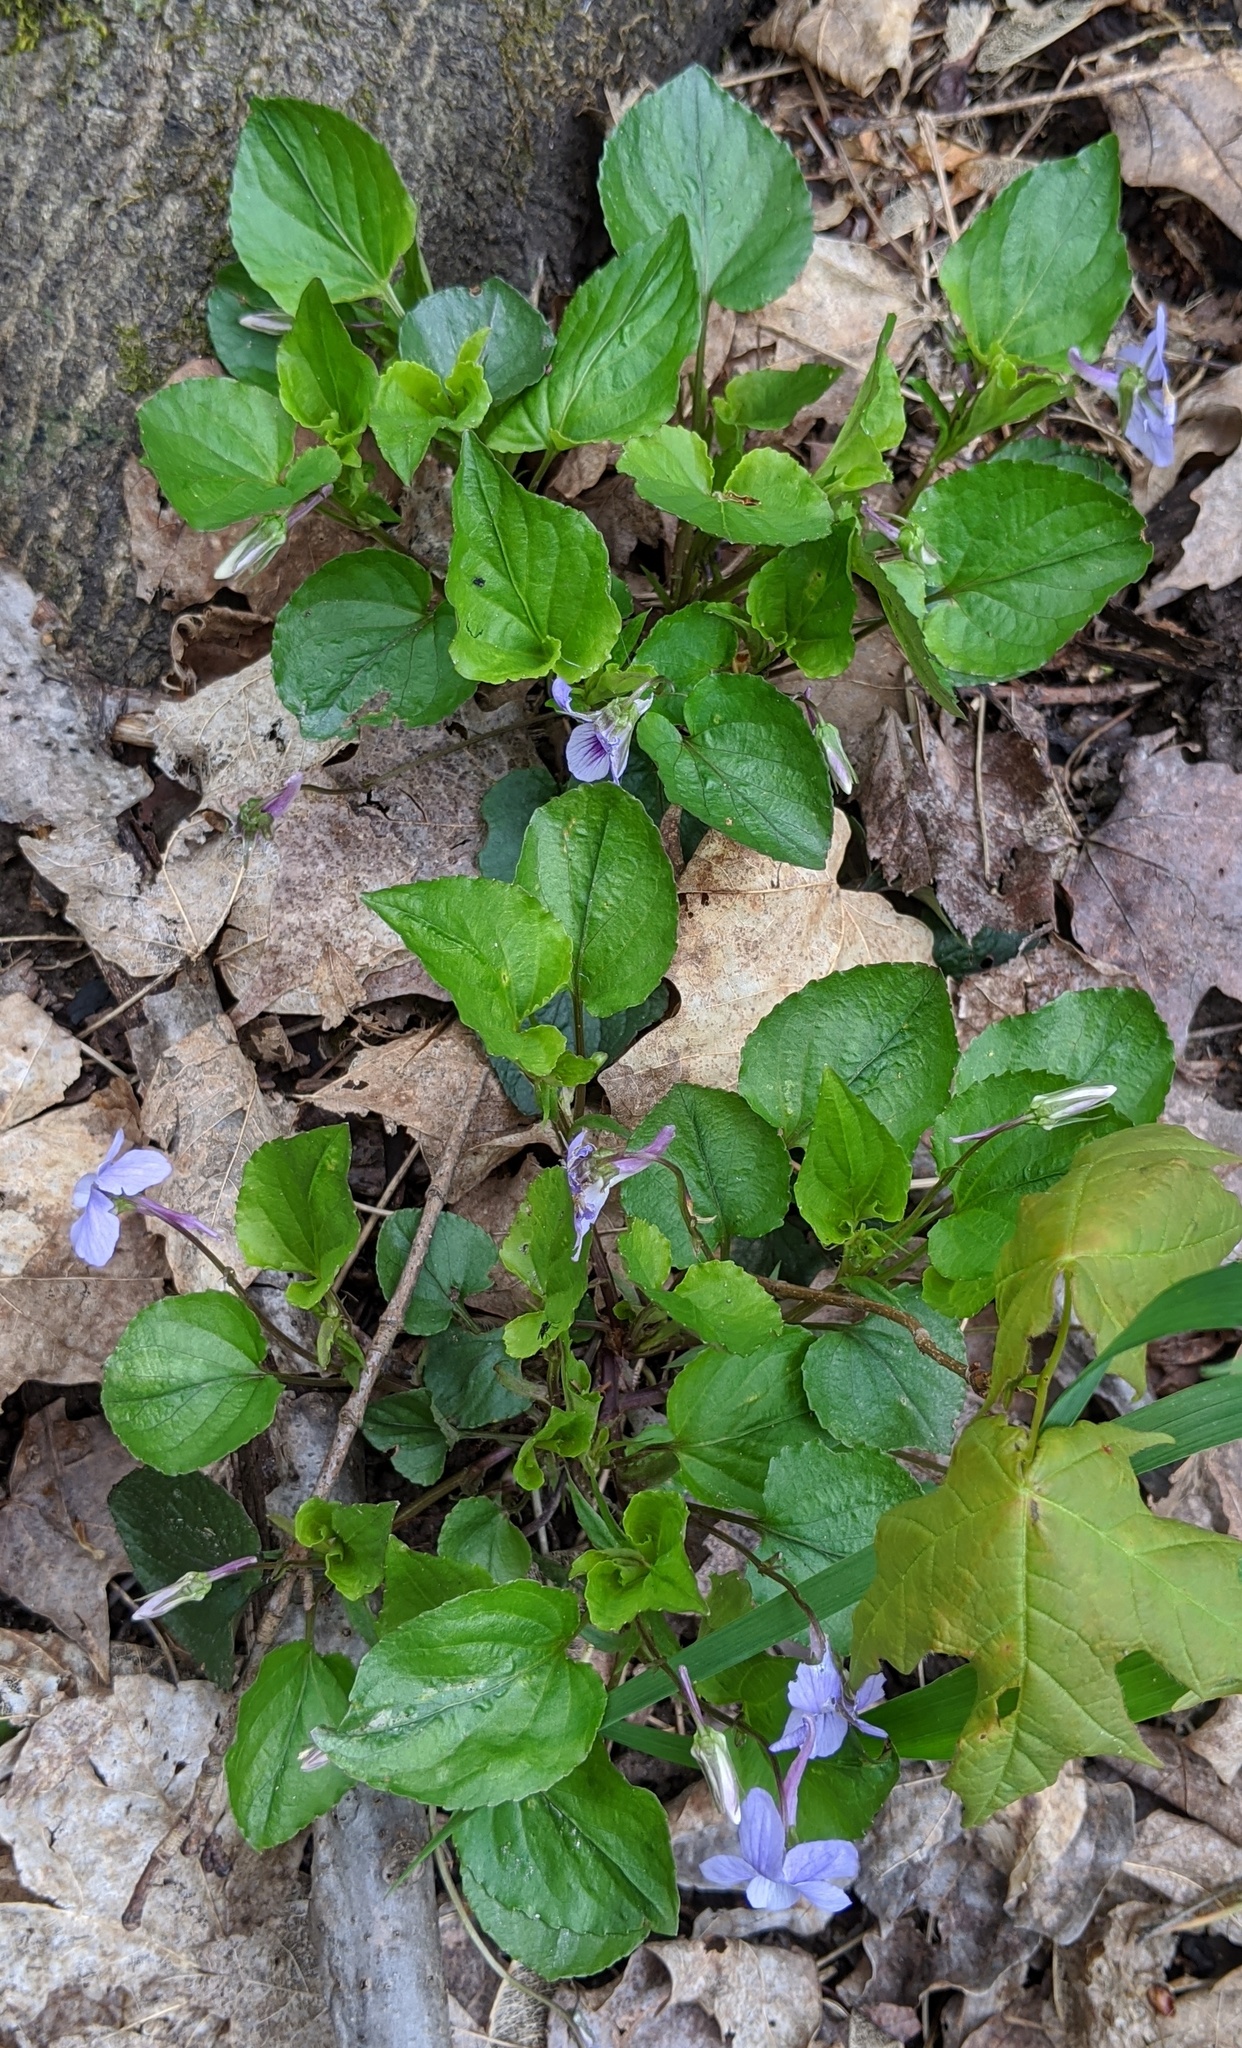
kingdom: Plantae
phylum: Tracheophyta
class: Magnoliopsida
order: Malpighiales
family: Violaceae
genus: Viola
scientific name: Viola rostrata
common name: Long-spur violet
